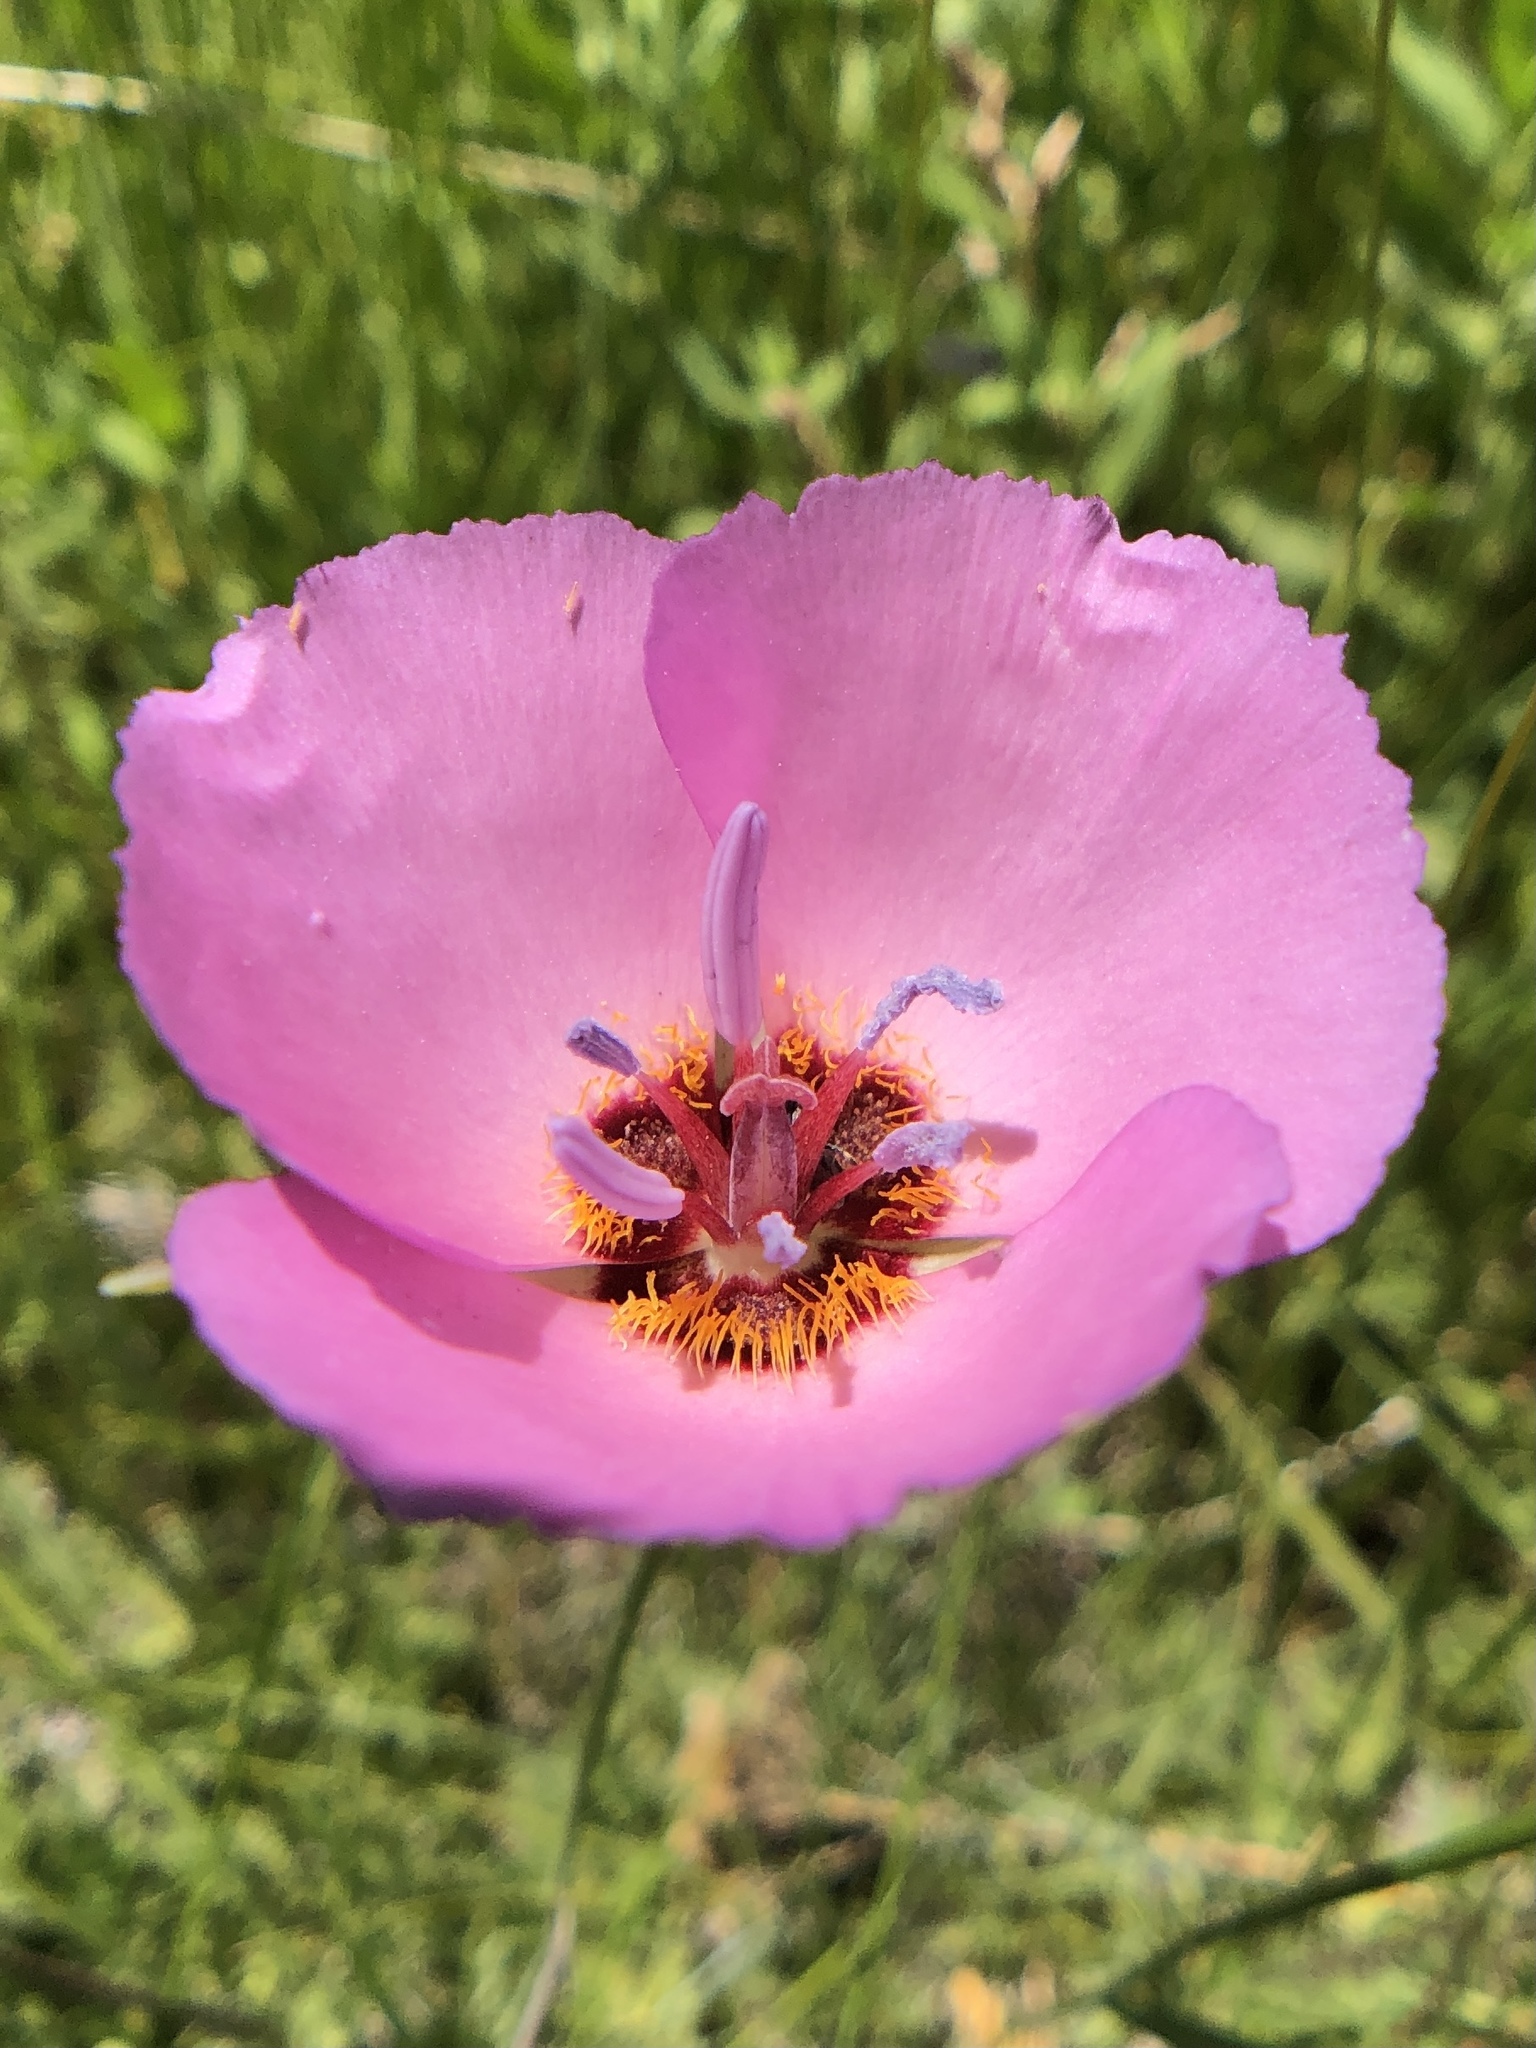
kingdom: Plantae
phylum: Tracheophyta
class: Liliopsida
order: Liliales
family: Liliaceae
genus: Calochortus
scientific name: Calochortus palmeri
